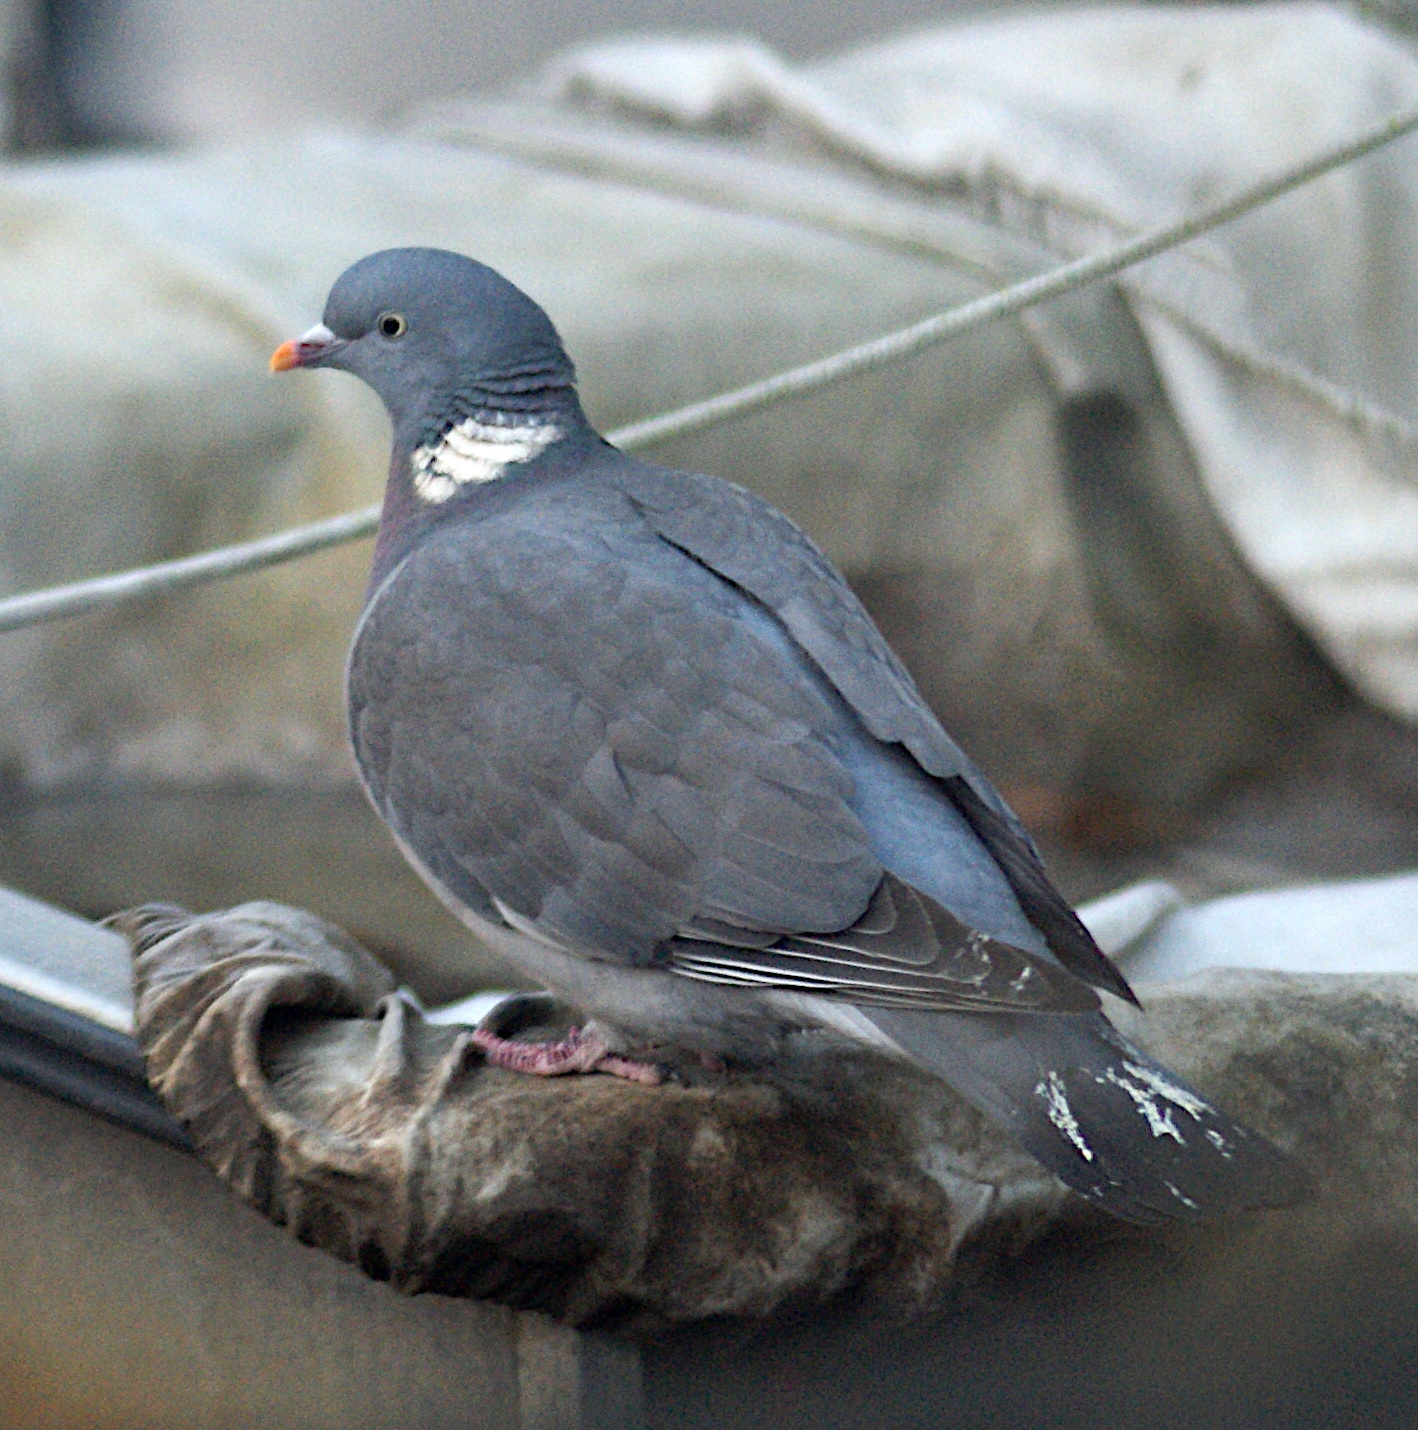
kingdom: Animalia
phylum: Chordata
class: Aves
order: Columbiformes
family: Columbidae
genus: Columba
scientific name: Columba palumbus
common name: Common wood pigeon
